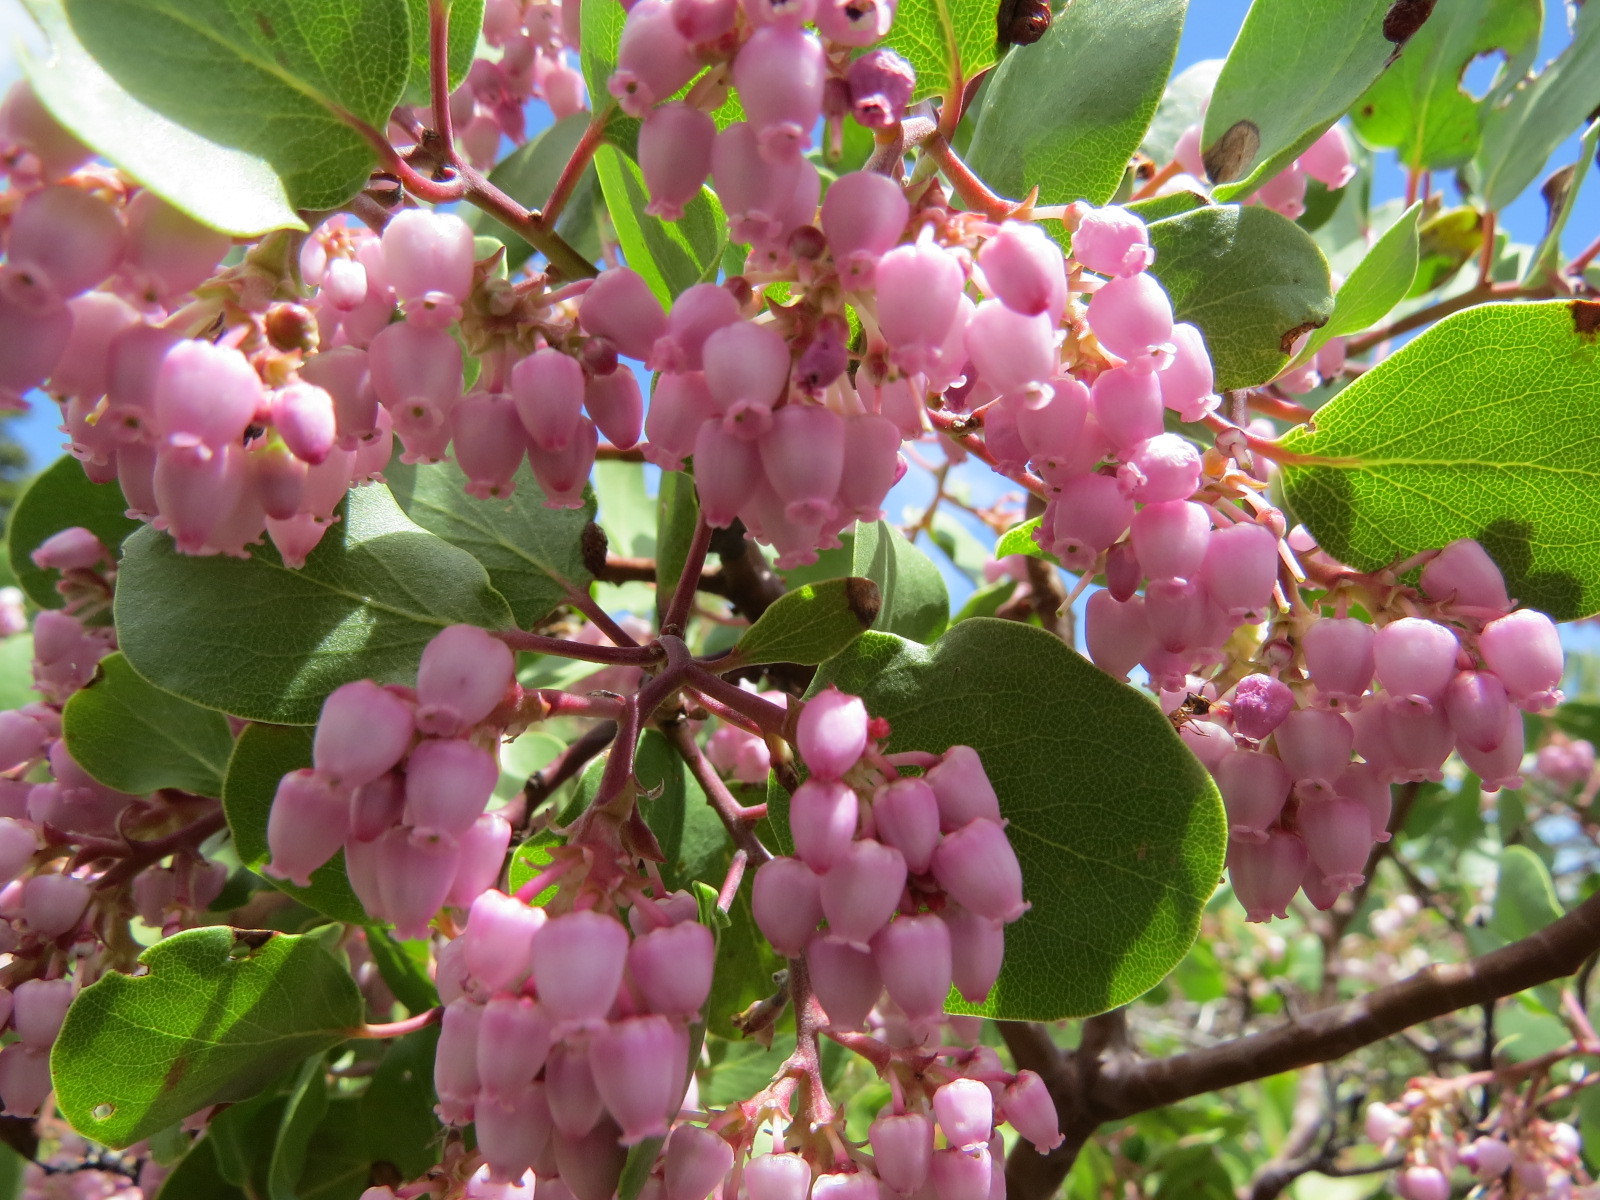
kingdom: Plantae
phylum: Tracheophyta
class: Magnoliopsida
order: Ericales
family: Ericaceae
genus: Arctostaphylos
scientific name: Arctostaphylos patula
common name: Green-leaf manzanita
